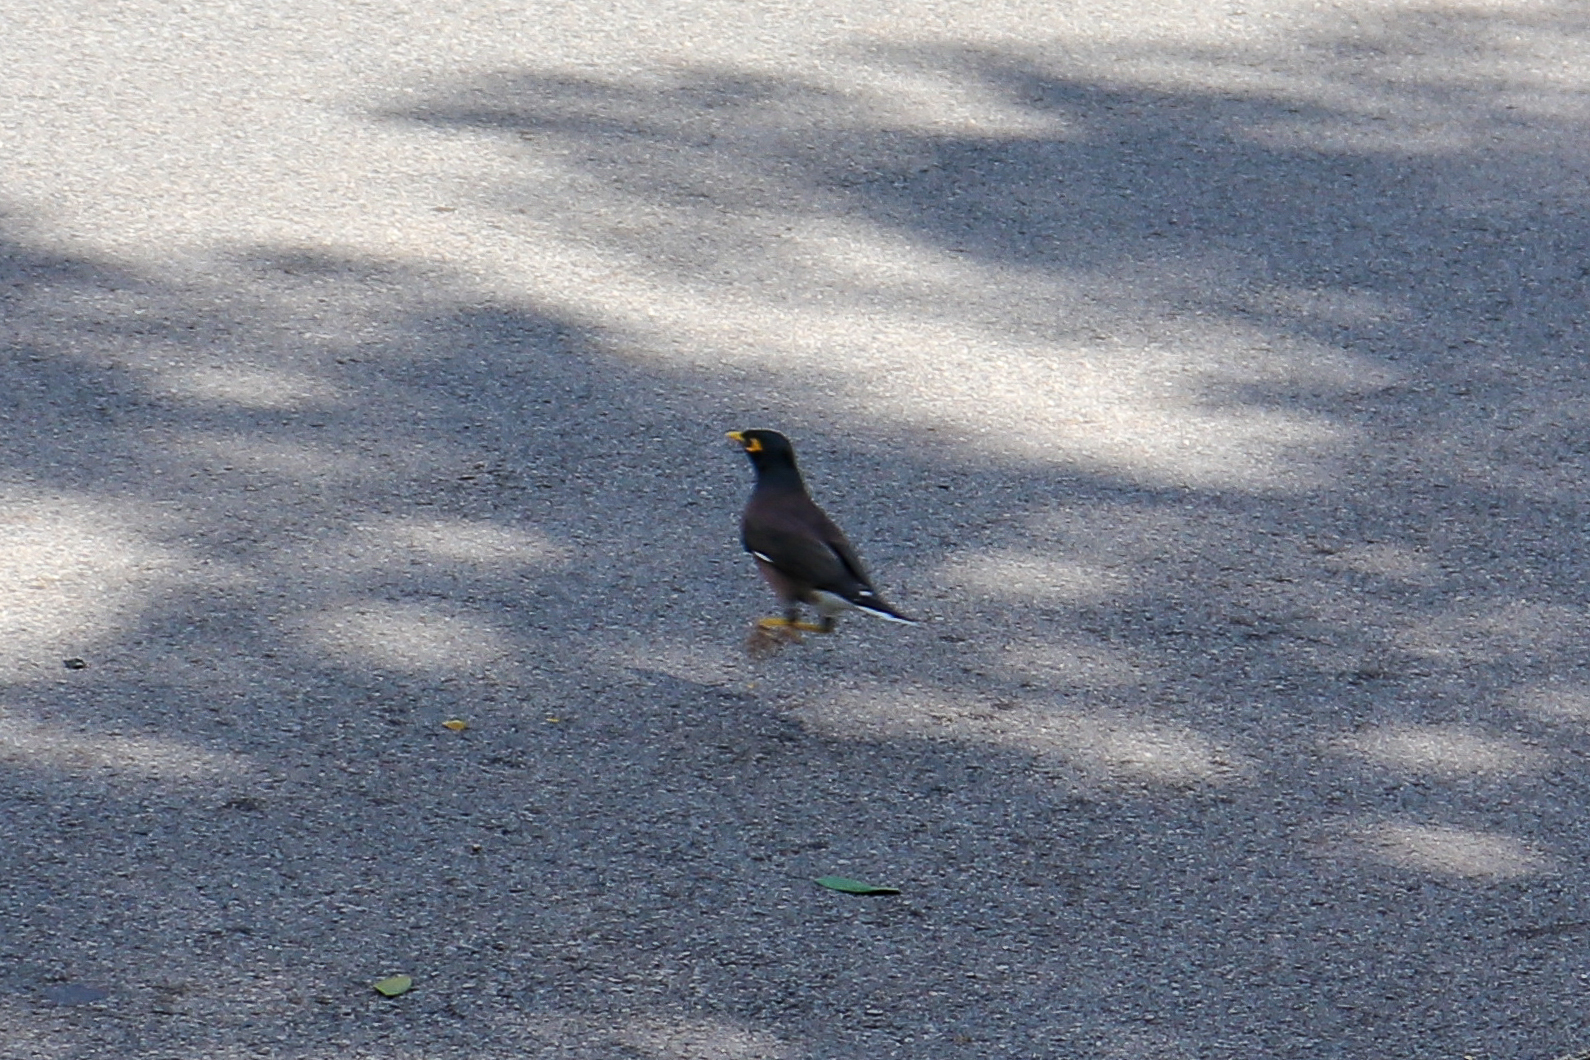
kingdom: Animalia
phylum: Chordata
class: Aves
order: Passeriformes
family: Sturnidae
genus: Acridotheres
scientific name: Acridotheres tristis
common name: Common myna
